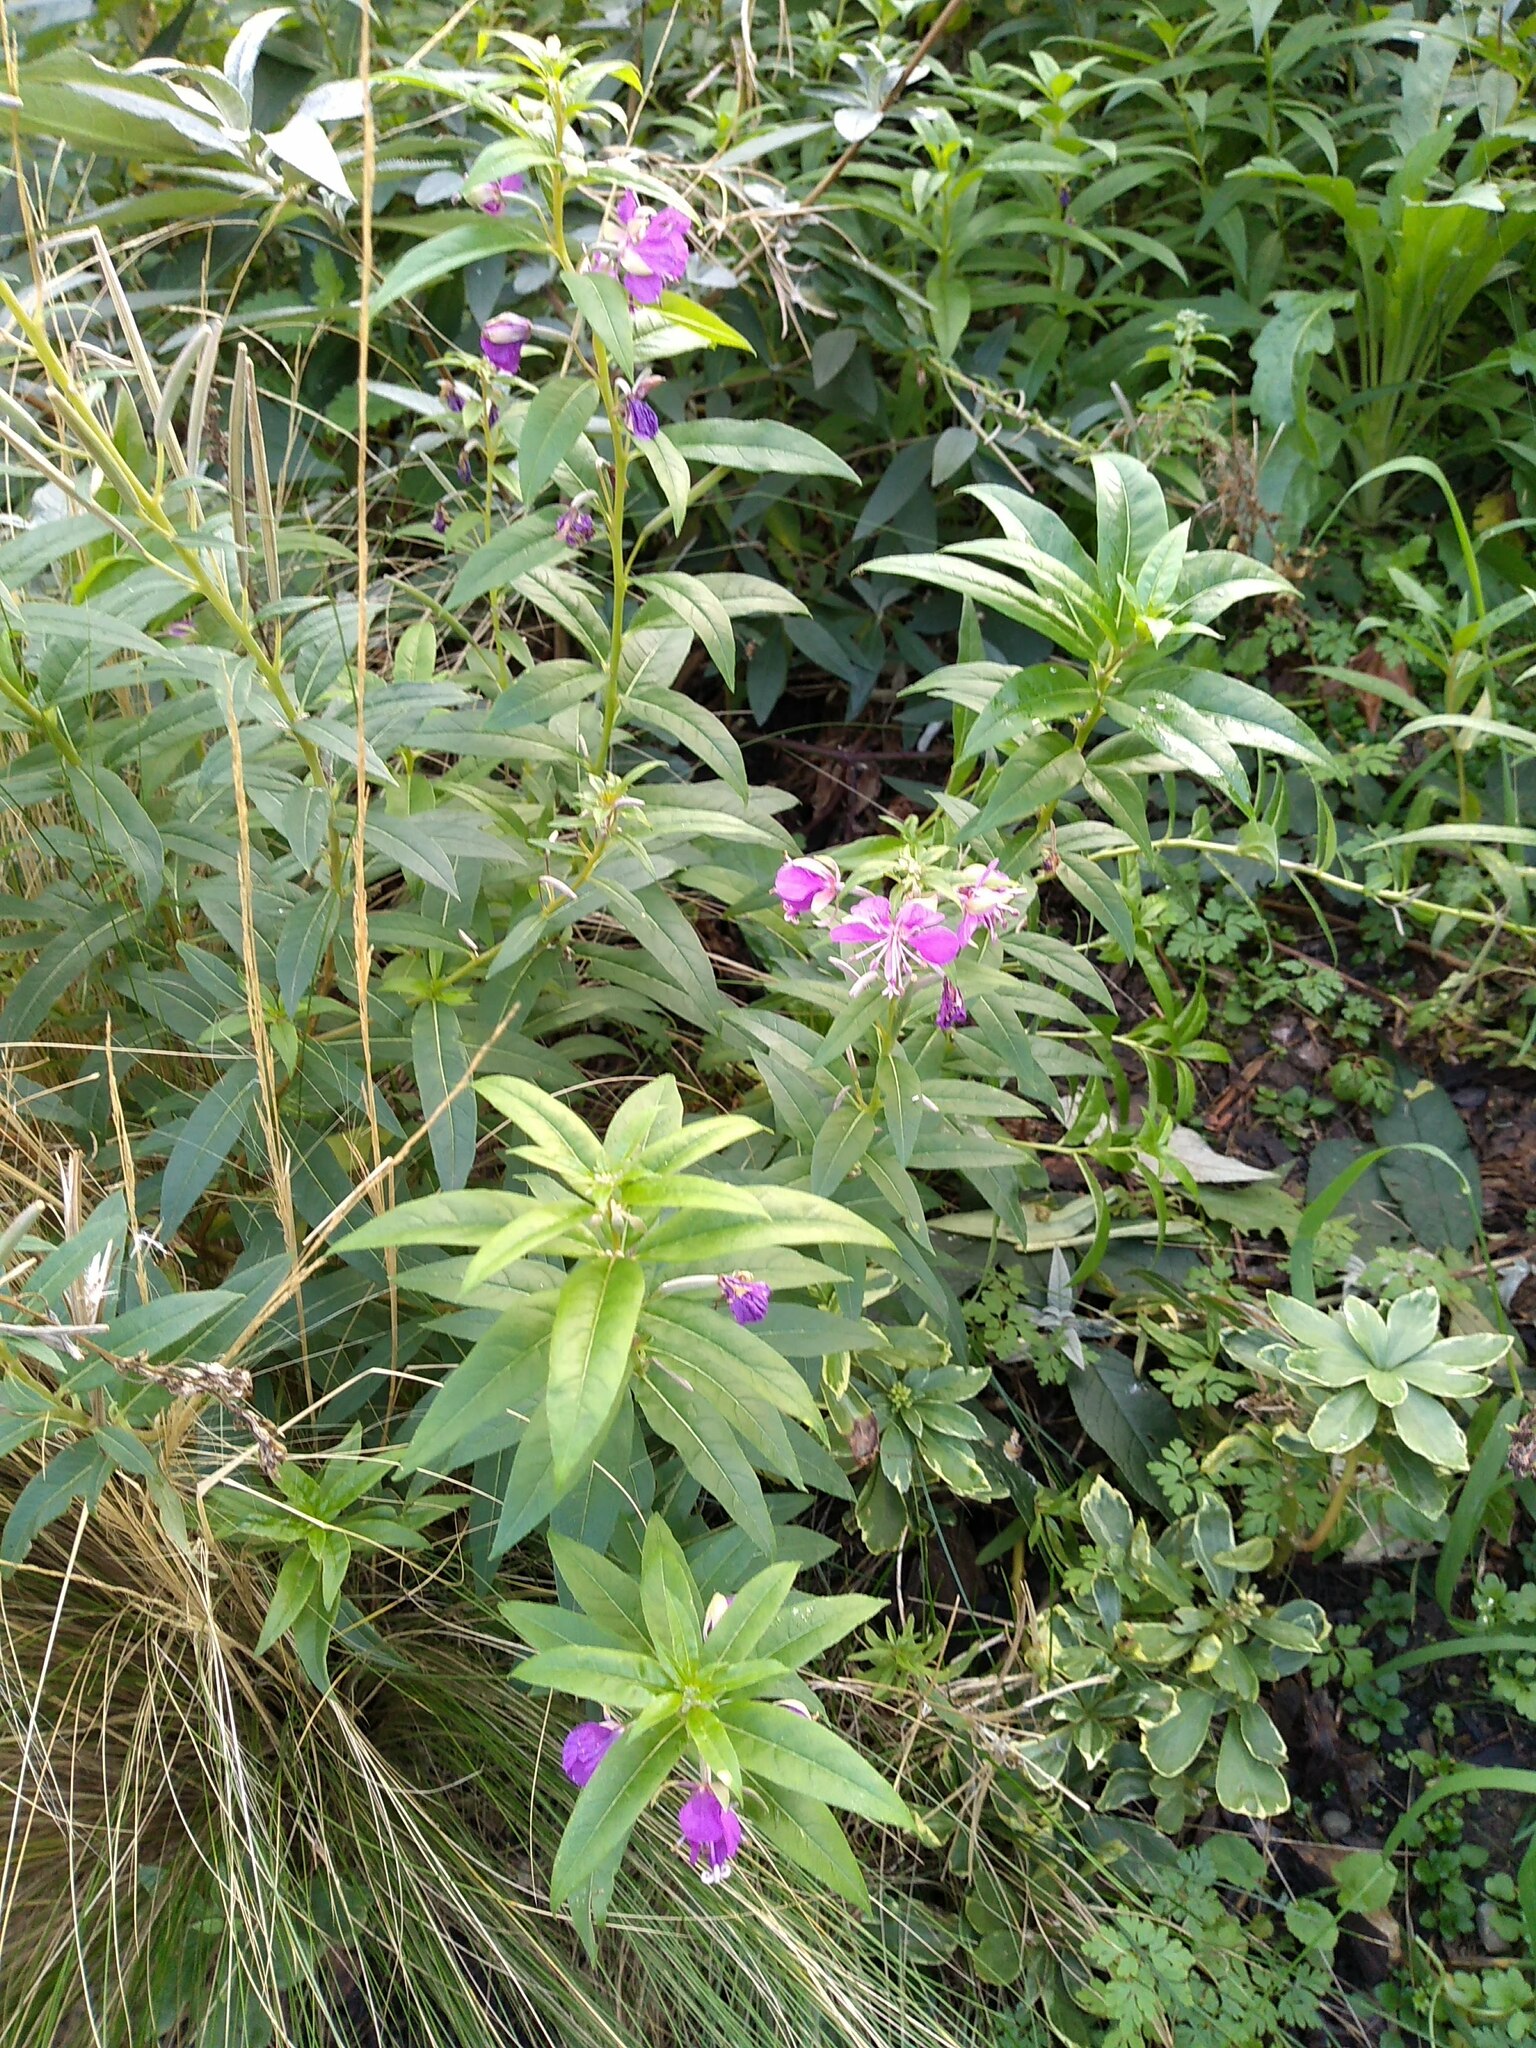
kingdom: Plantae
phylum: Tracheophyta
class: Magnoliopsida
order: Myrtales
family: Onagraceae
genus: Chamaenerion
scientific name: Chamaenerion angustifolium
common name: Fireweed
